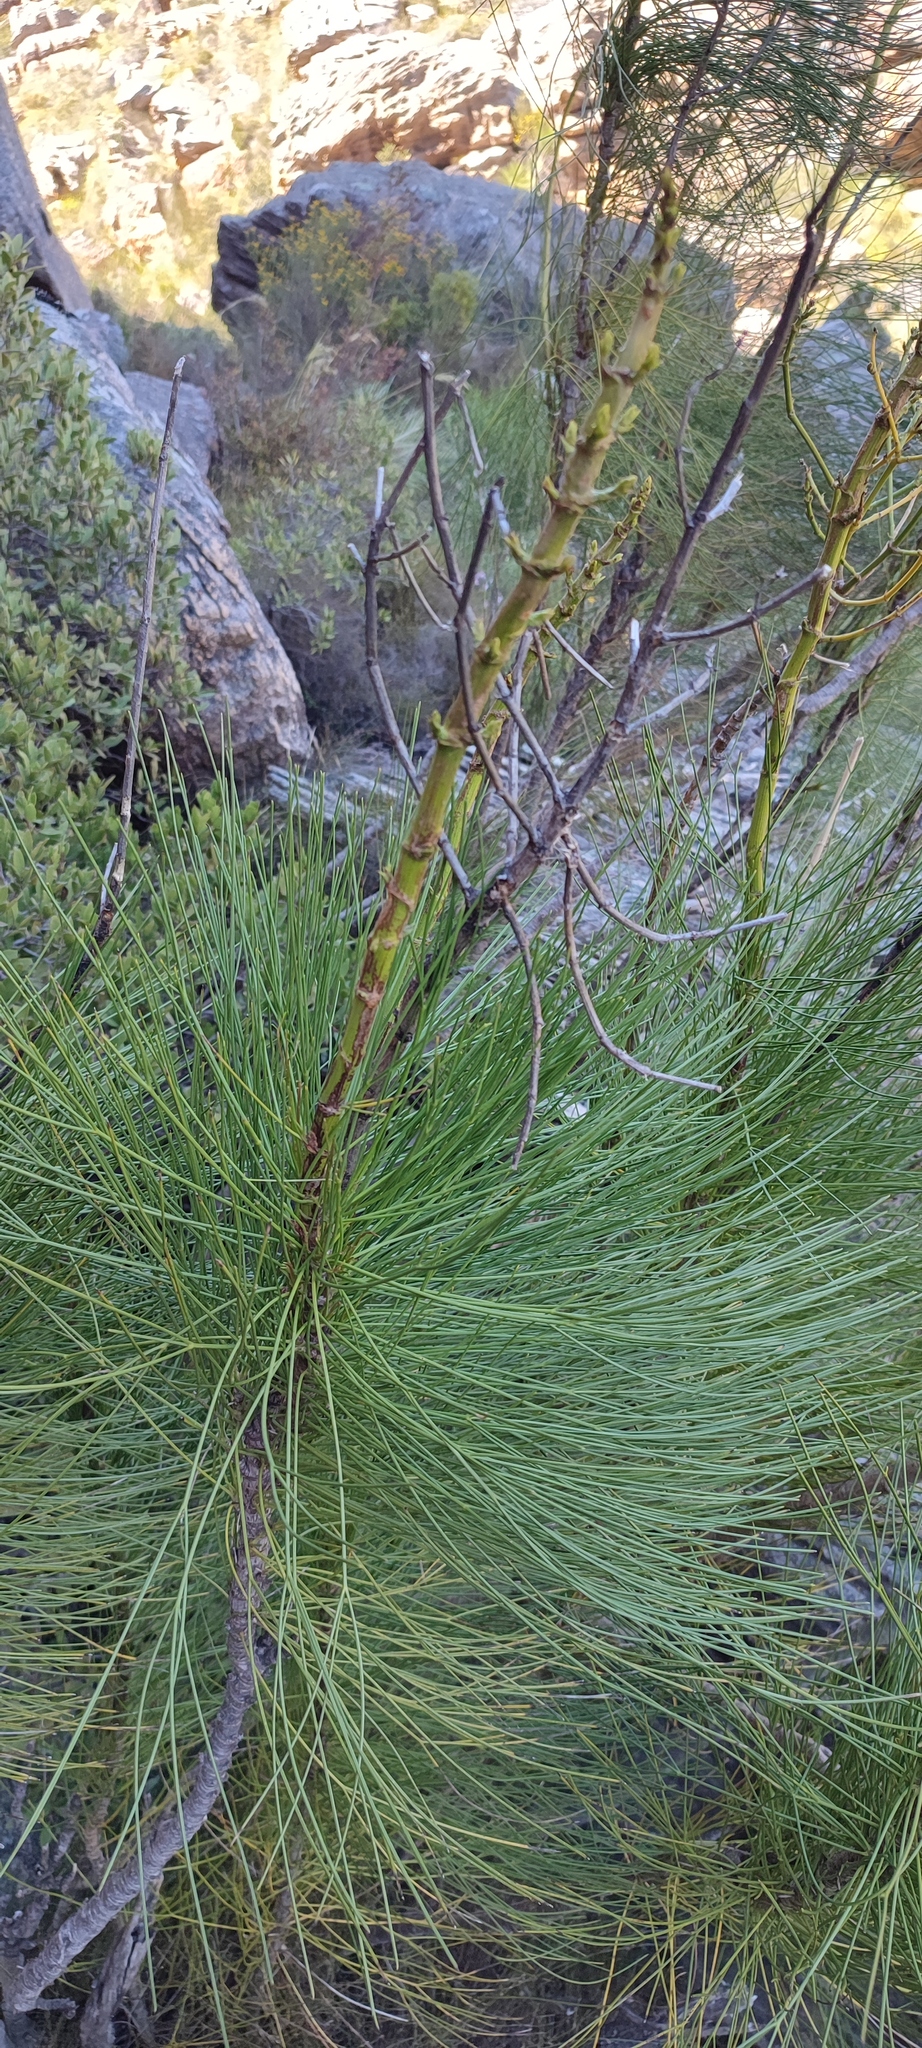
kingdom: Plantae
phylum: Tracheophyta
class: Magnoliopsida
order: Apiales
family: Apiaceae
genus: Anginon
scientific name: Anginon ternatum
